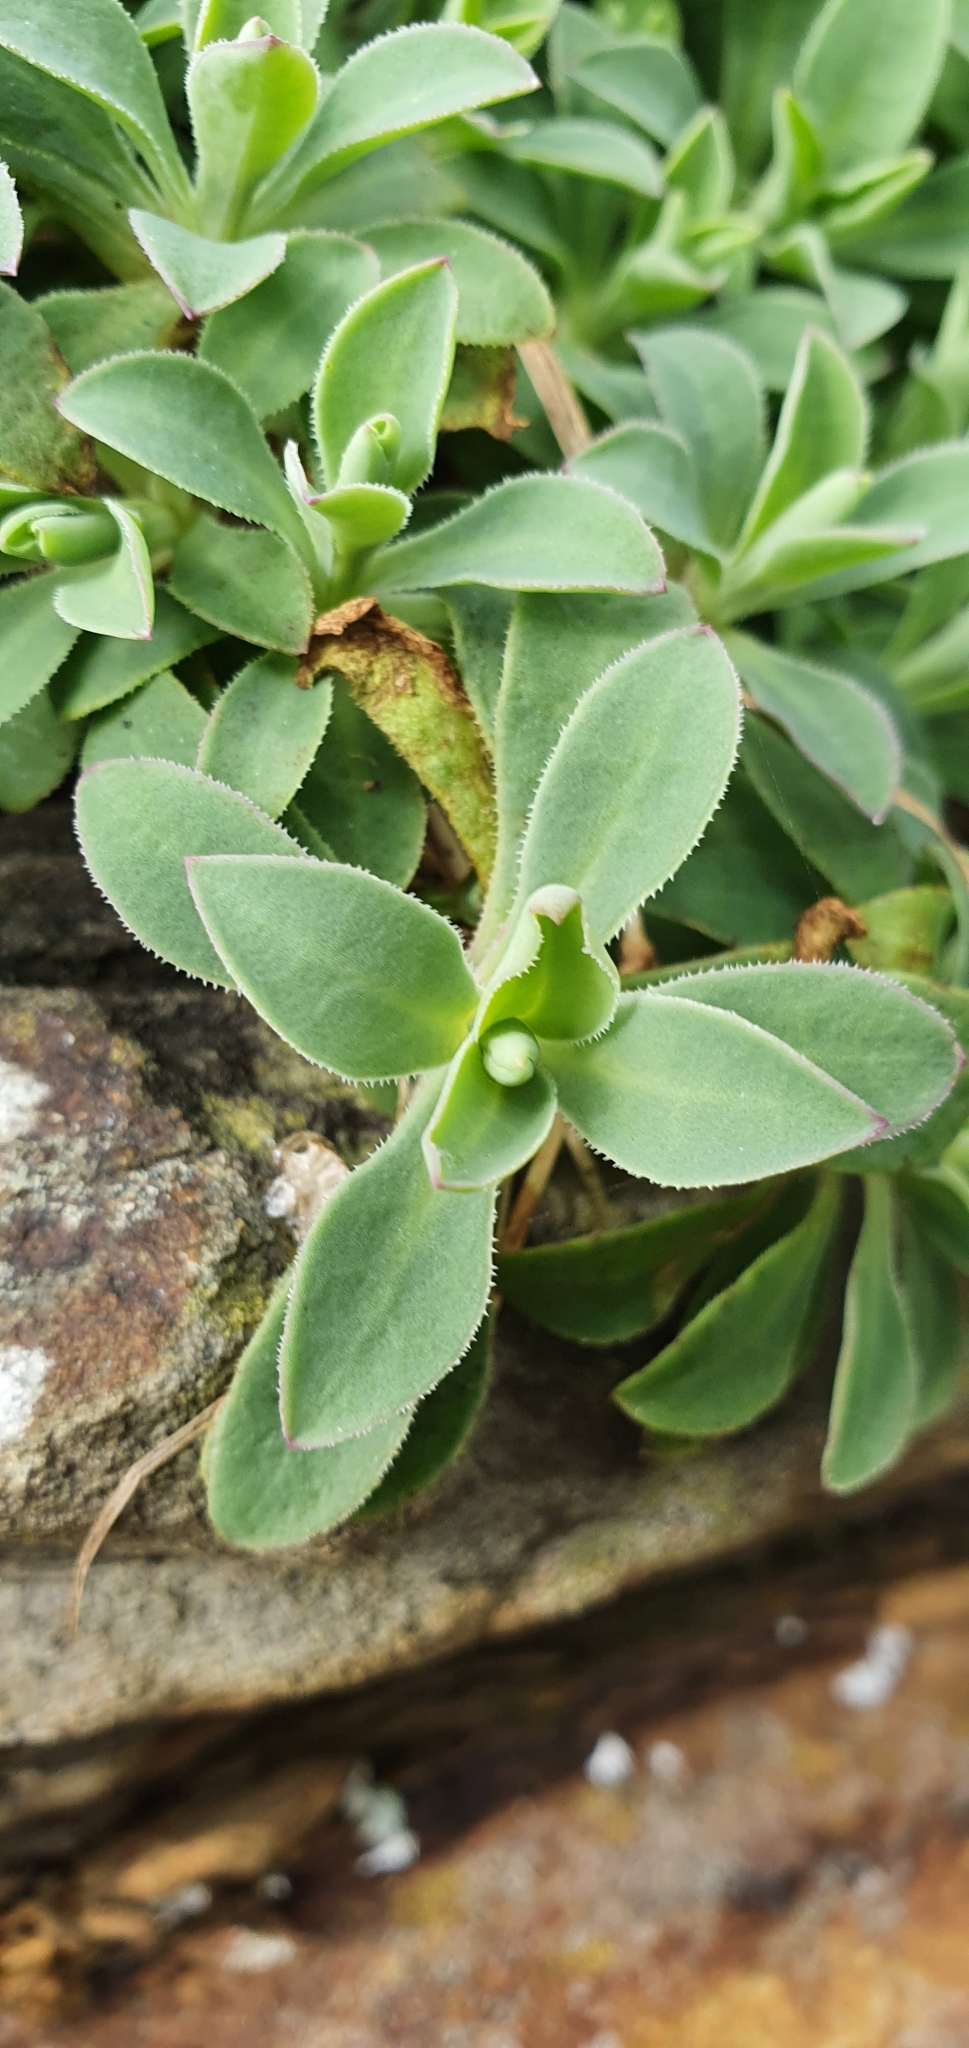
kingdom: Plantae
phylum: Tracheophyta
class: Magnoliopsida
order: Caryophyllales
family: Caryophyllaceae
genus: Silene
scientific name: Silene uniflora
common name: Sea campion
